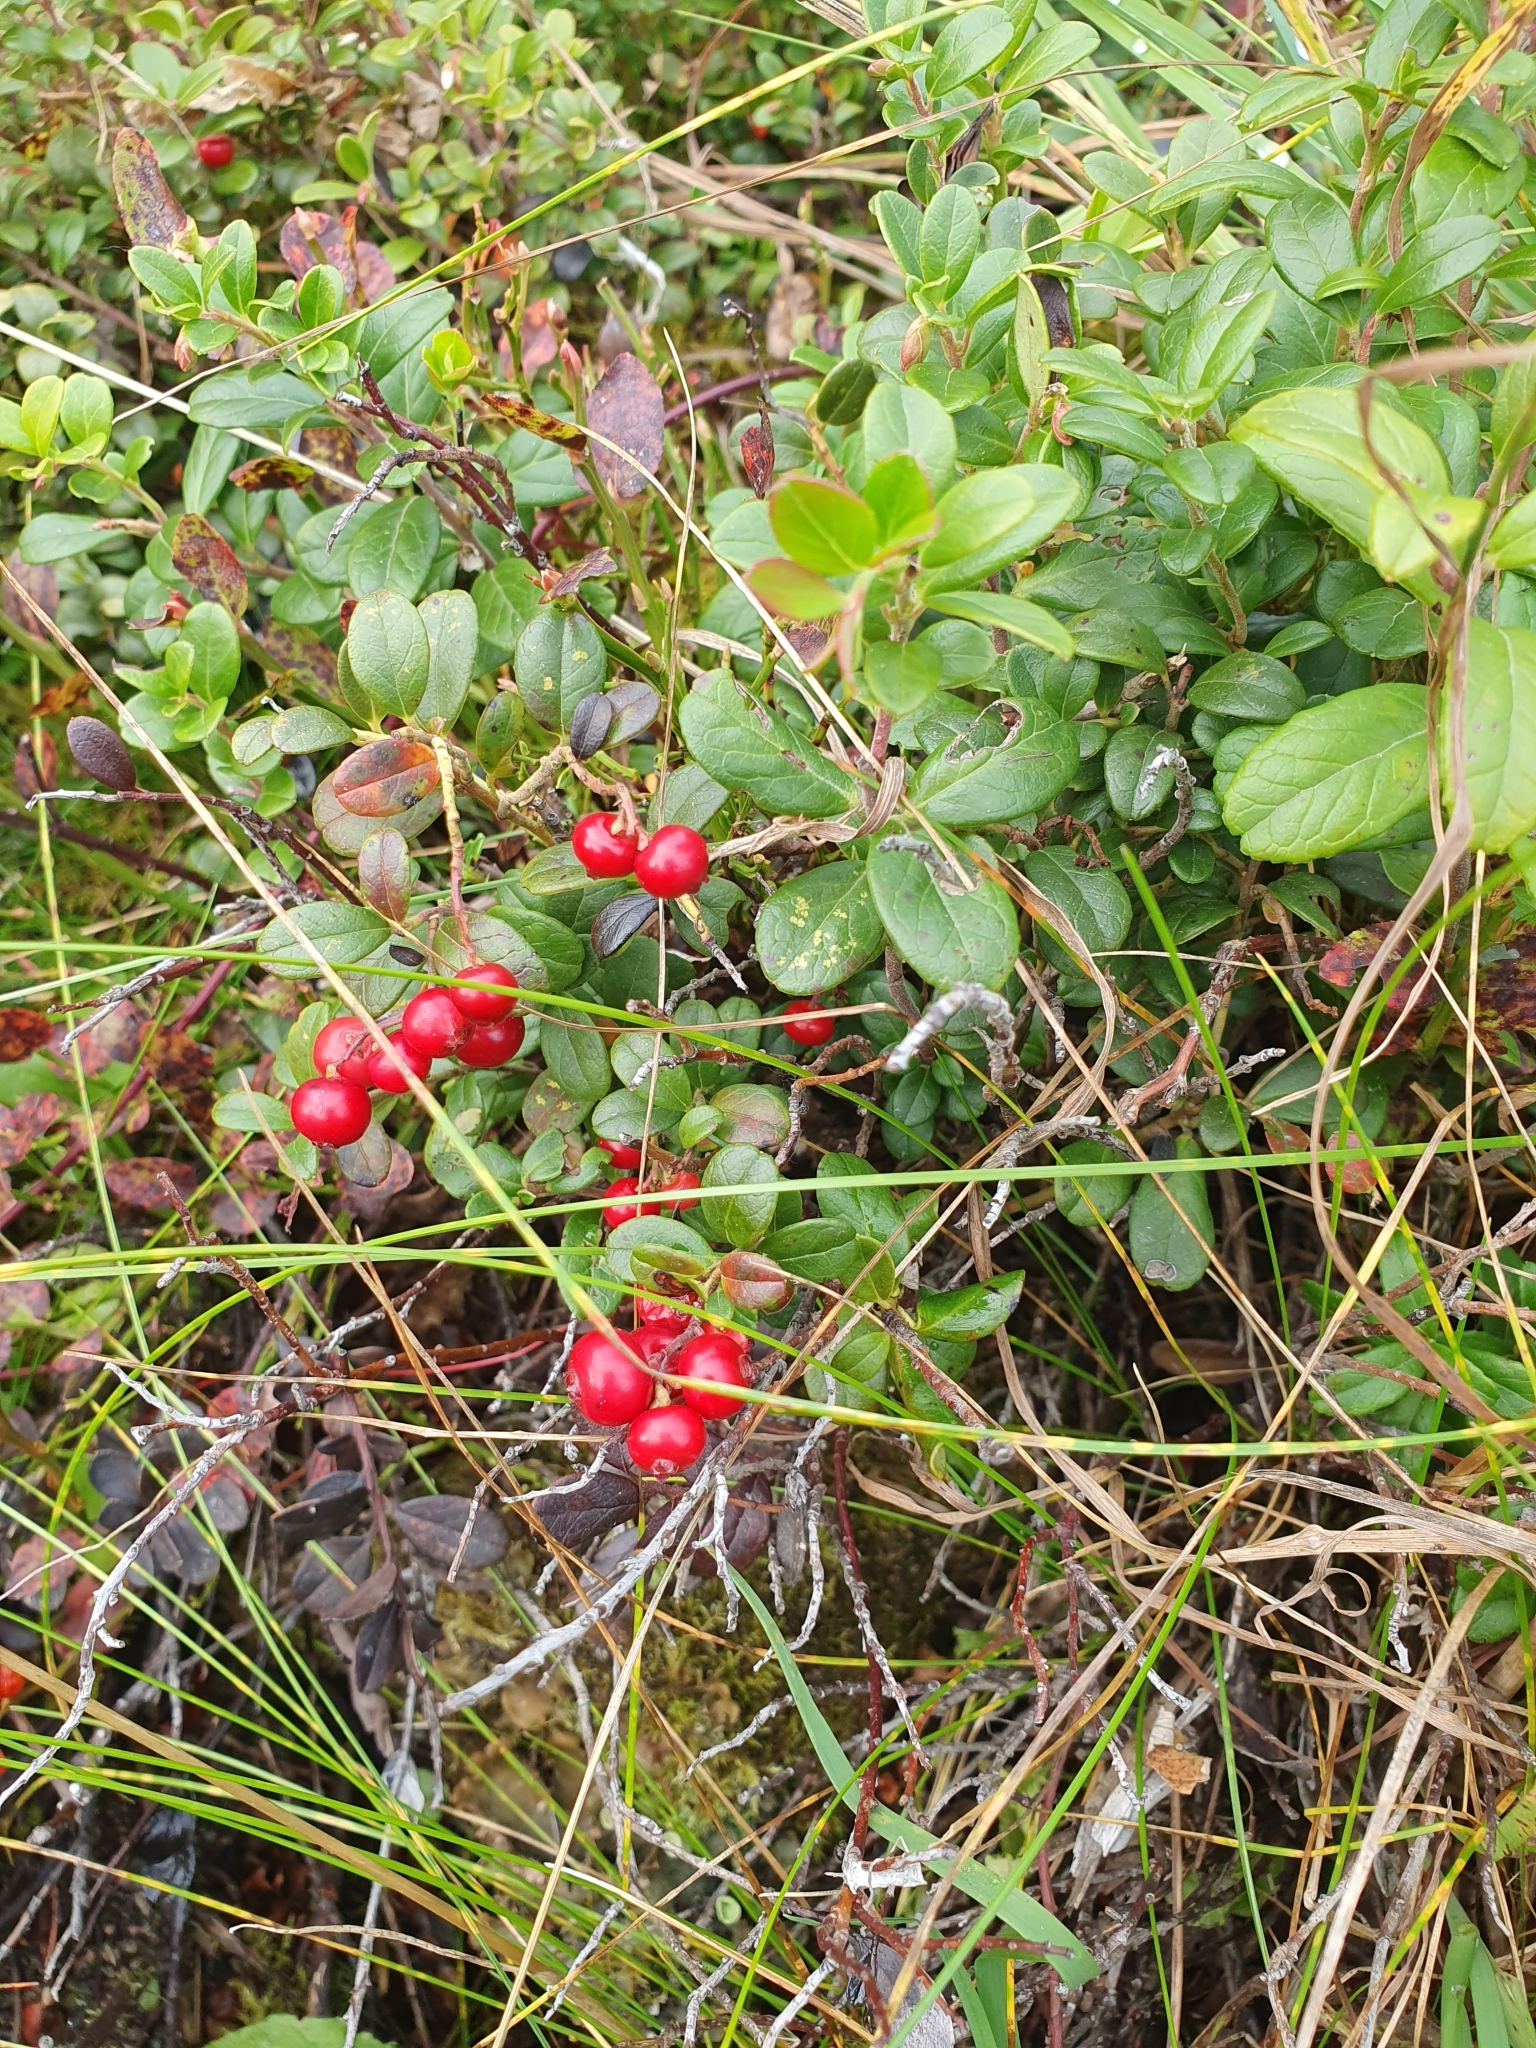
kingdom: Plantae
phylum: Tracheophyta
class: Magnoliopsida
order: Ericales
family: Ericaceae
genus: Vaccinium
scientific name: Vaccinium vitis-idaea
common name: Cowberry
